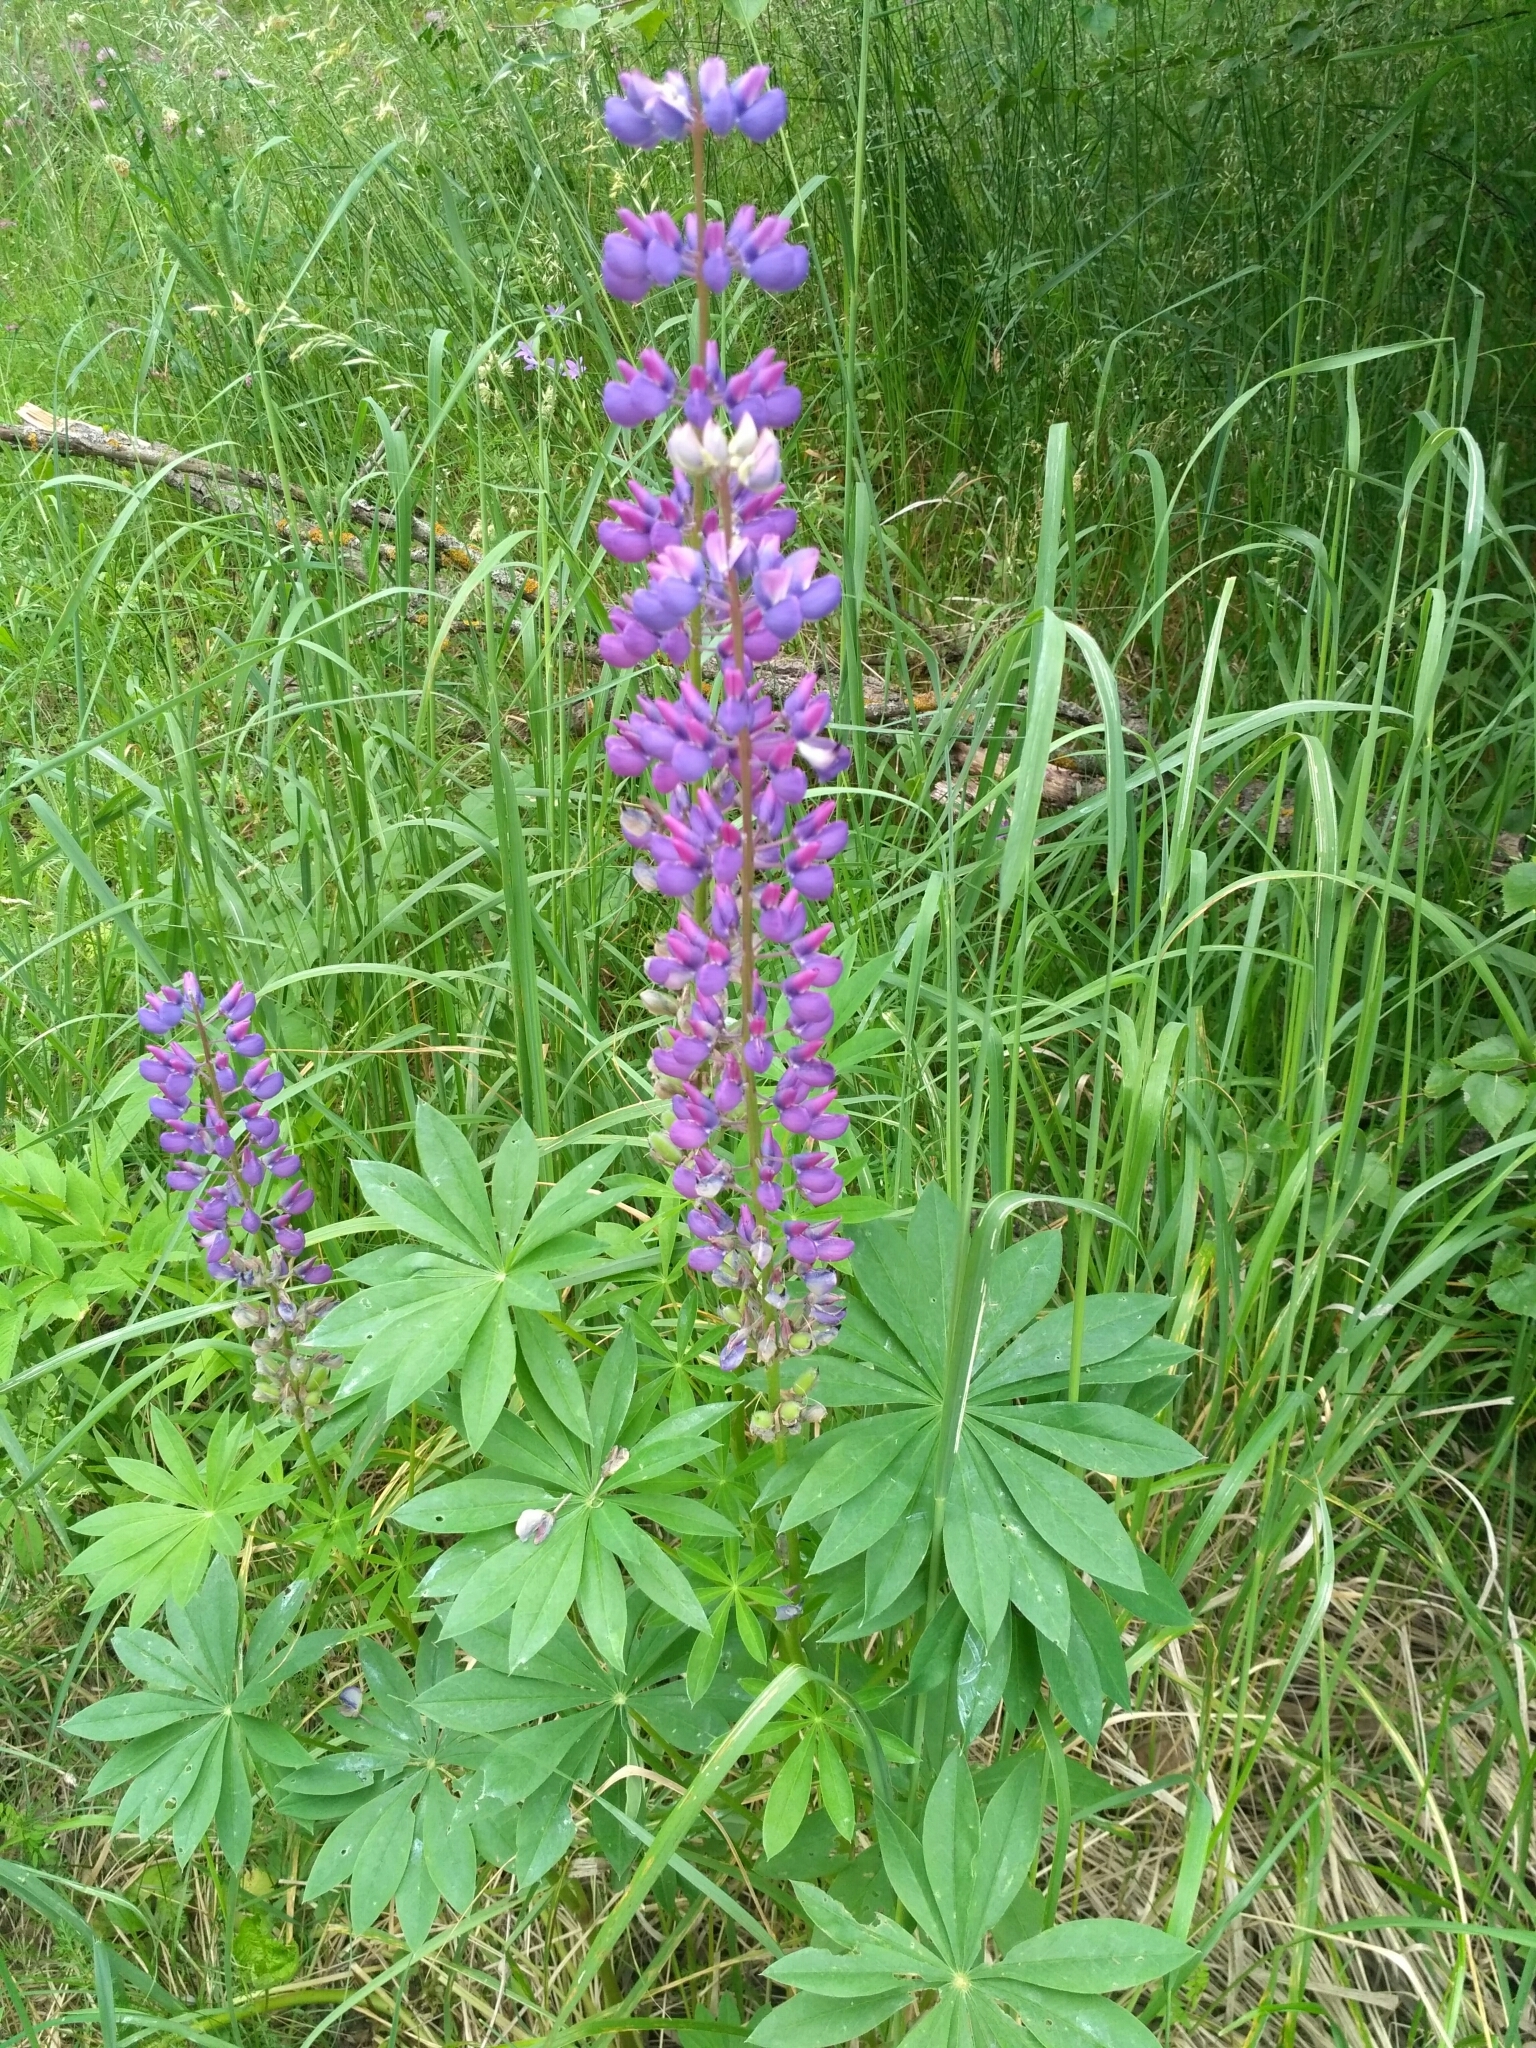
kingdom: Plantae
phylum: Tracheophyta
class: Magnoliopsida
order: Fabales
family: Fabaceae
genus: Lupinus
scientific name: Lupinus polyphyllus
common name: Garden lupin
